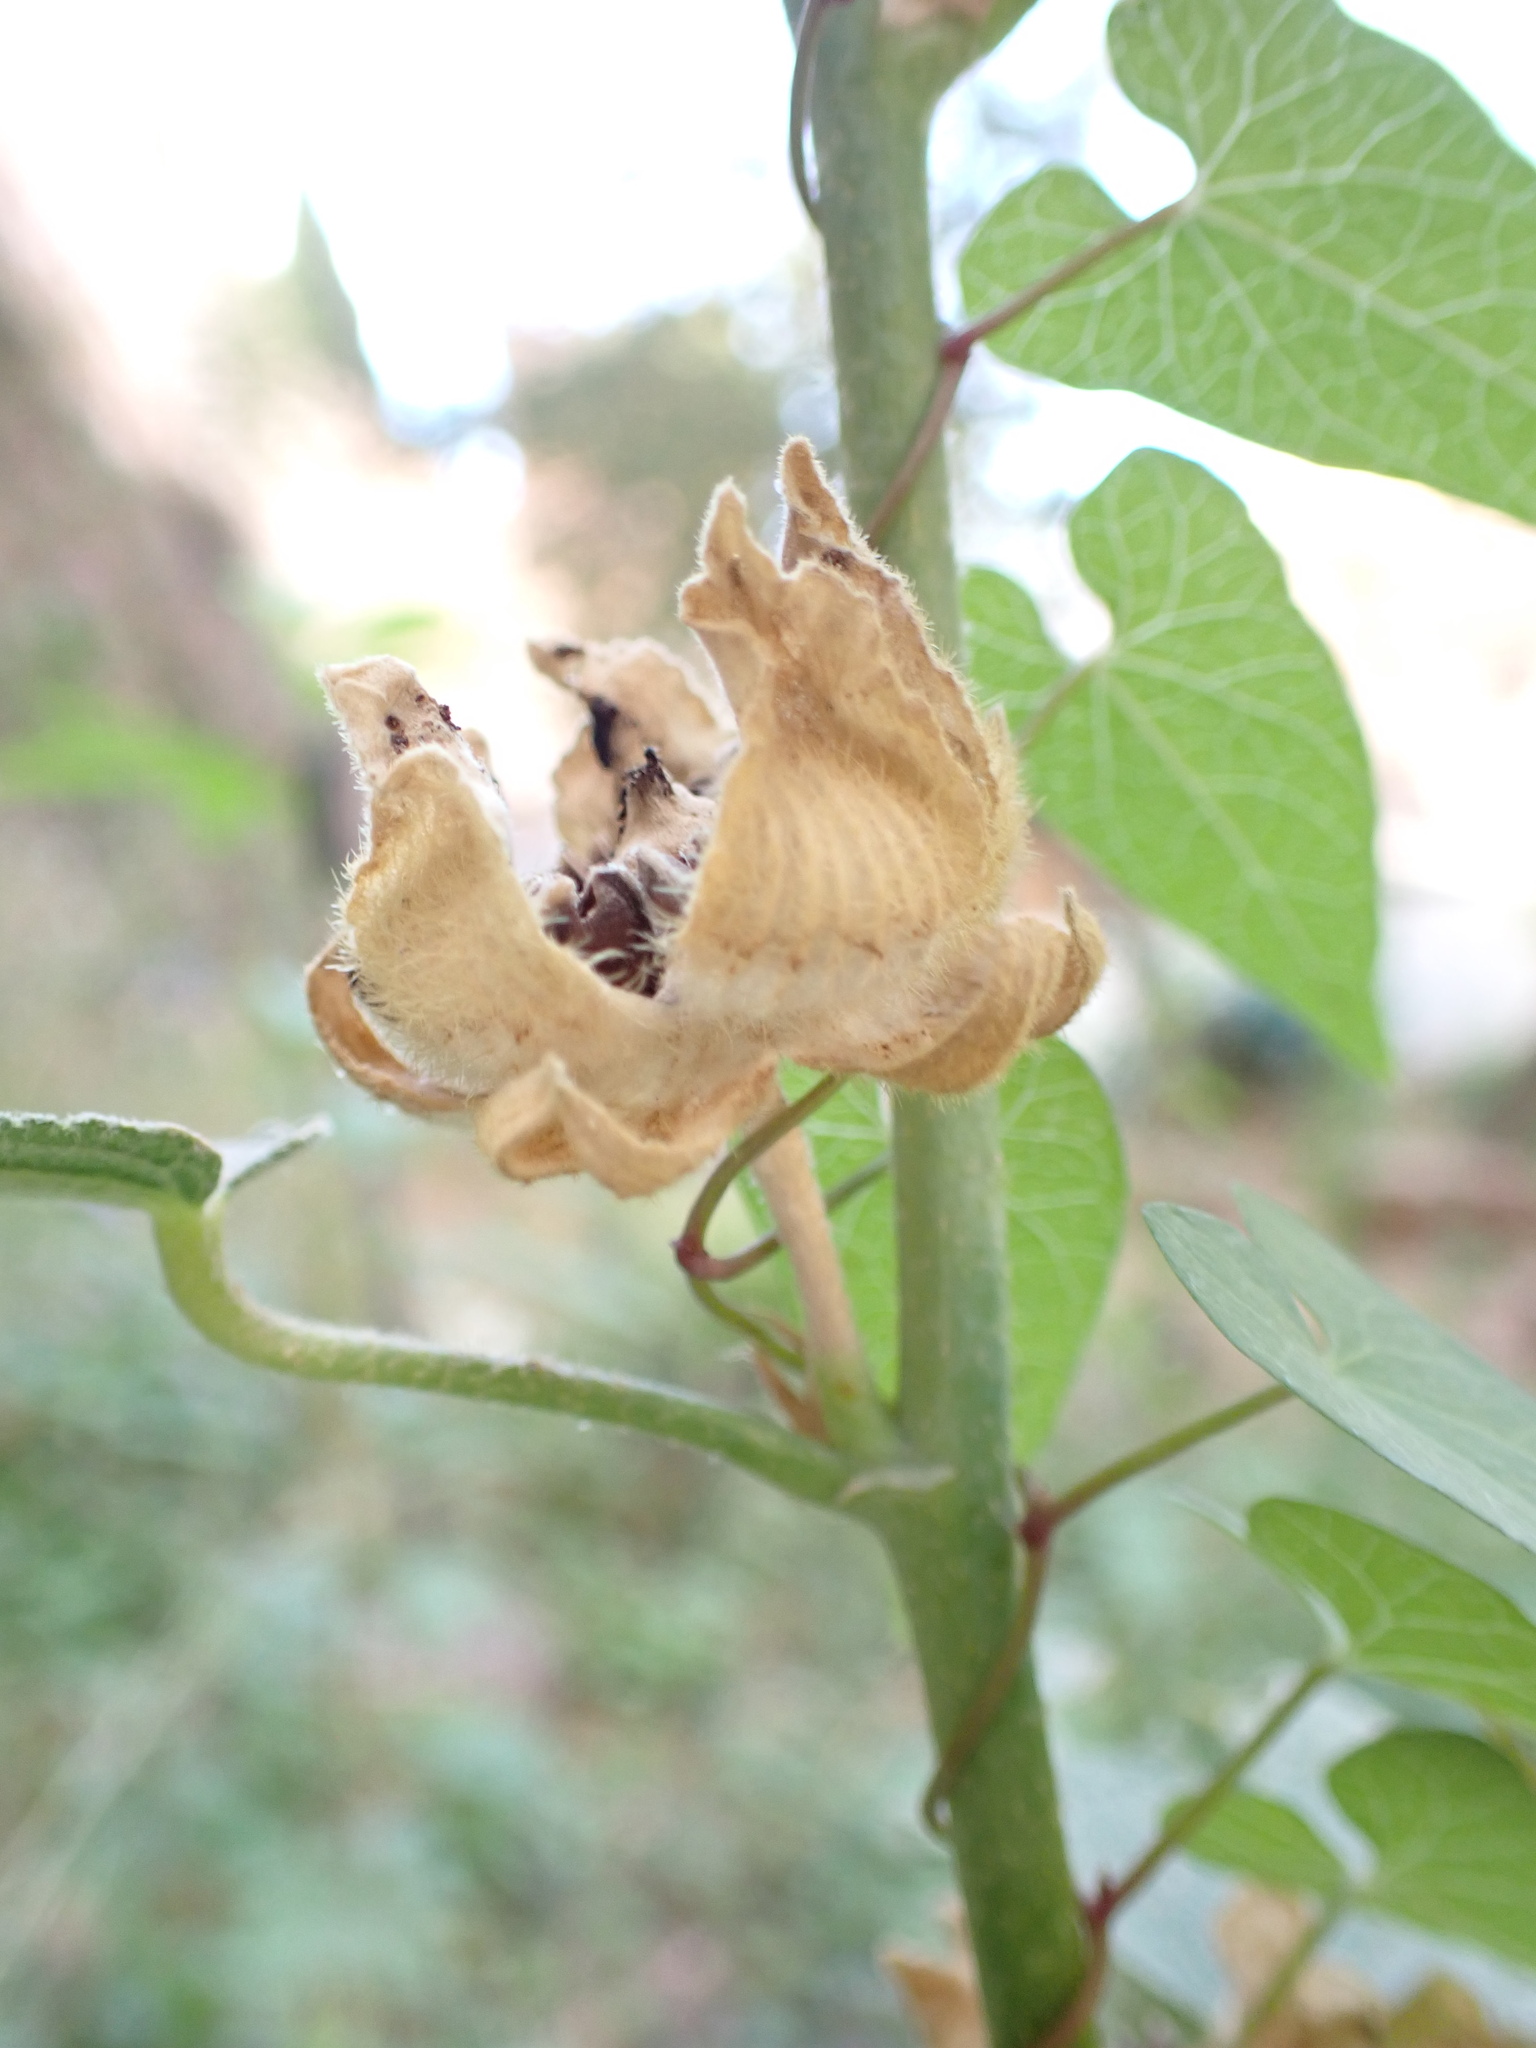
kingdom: Plantae
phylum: Tracheophyta
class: Magnoliopsida
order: Malvales
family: Malvaceae
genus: Alcea
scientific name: Alcea rosea
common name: Hollyhock
